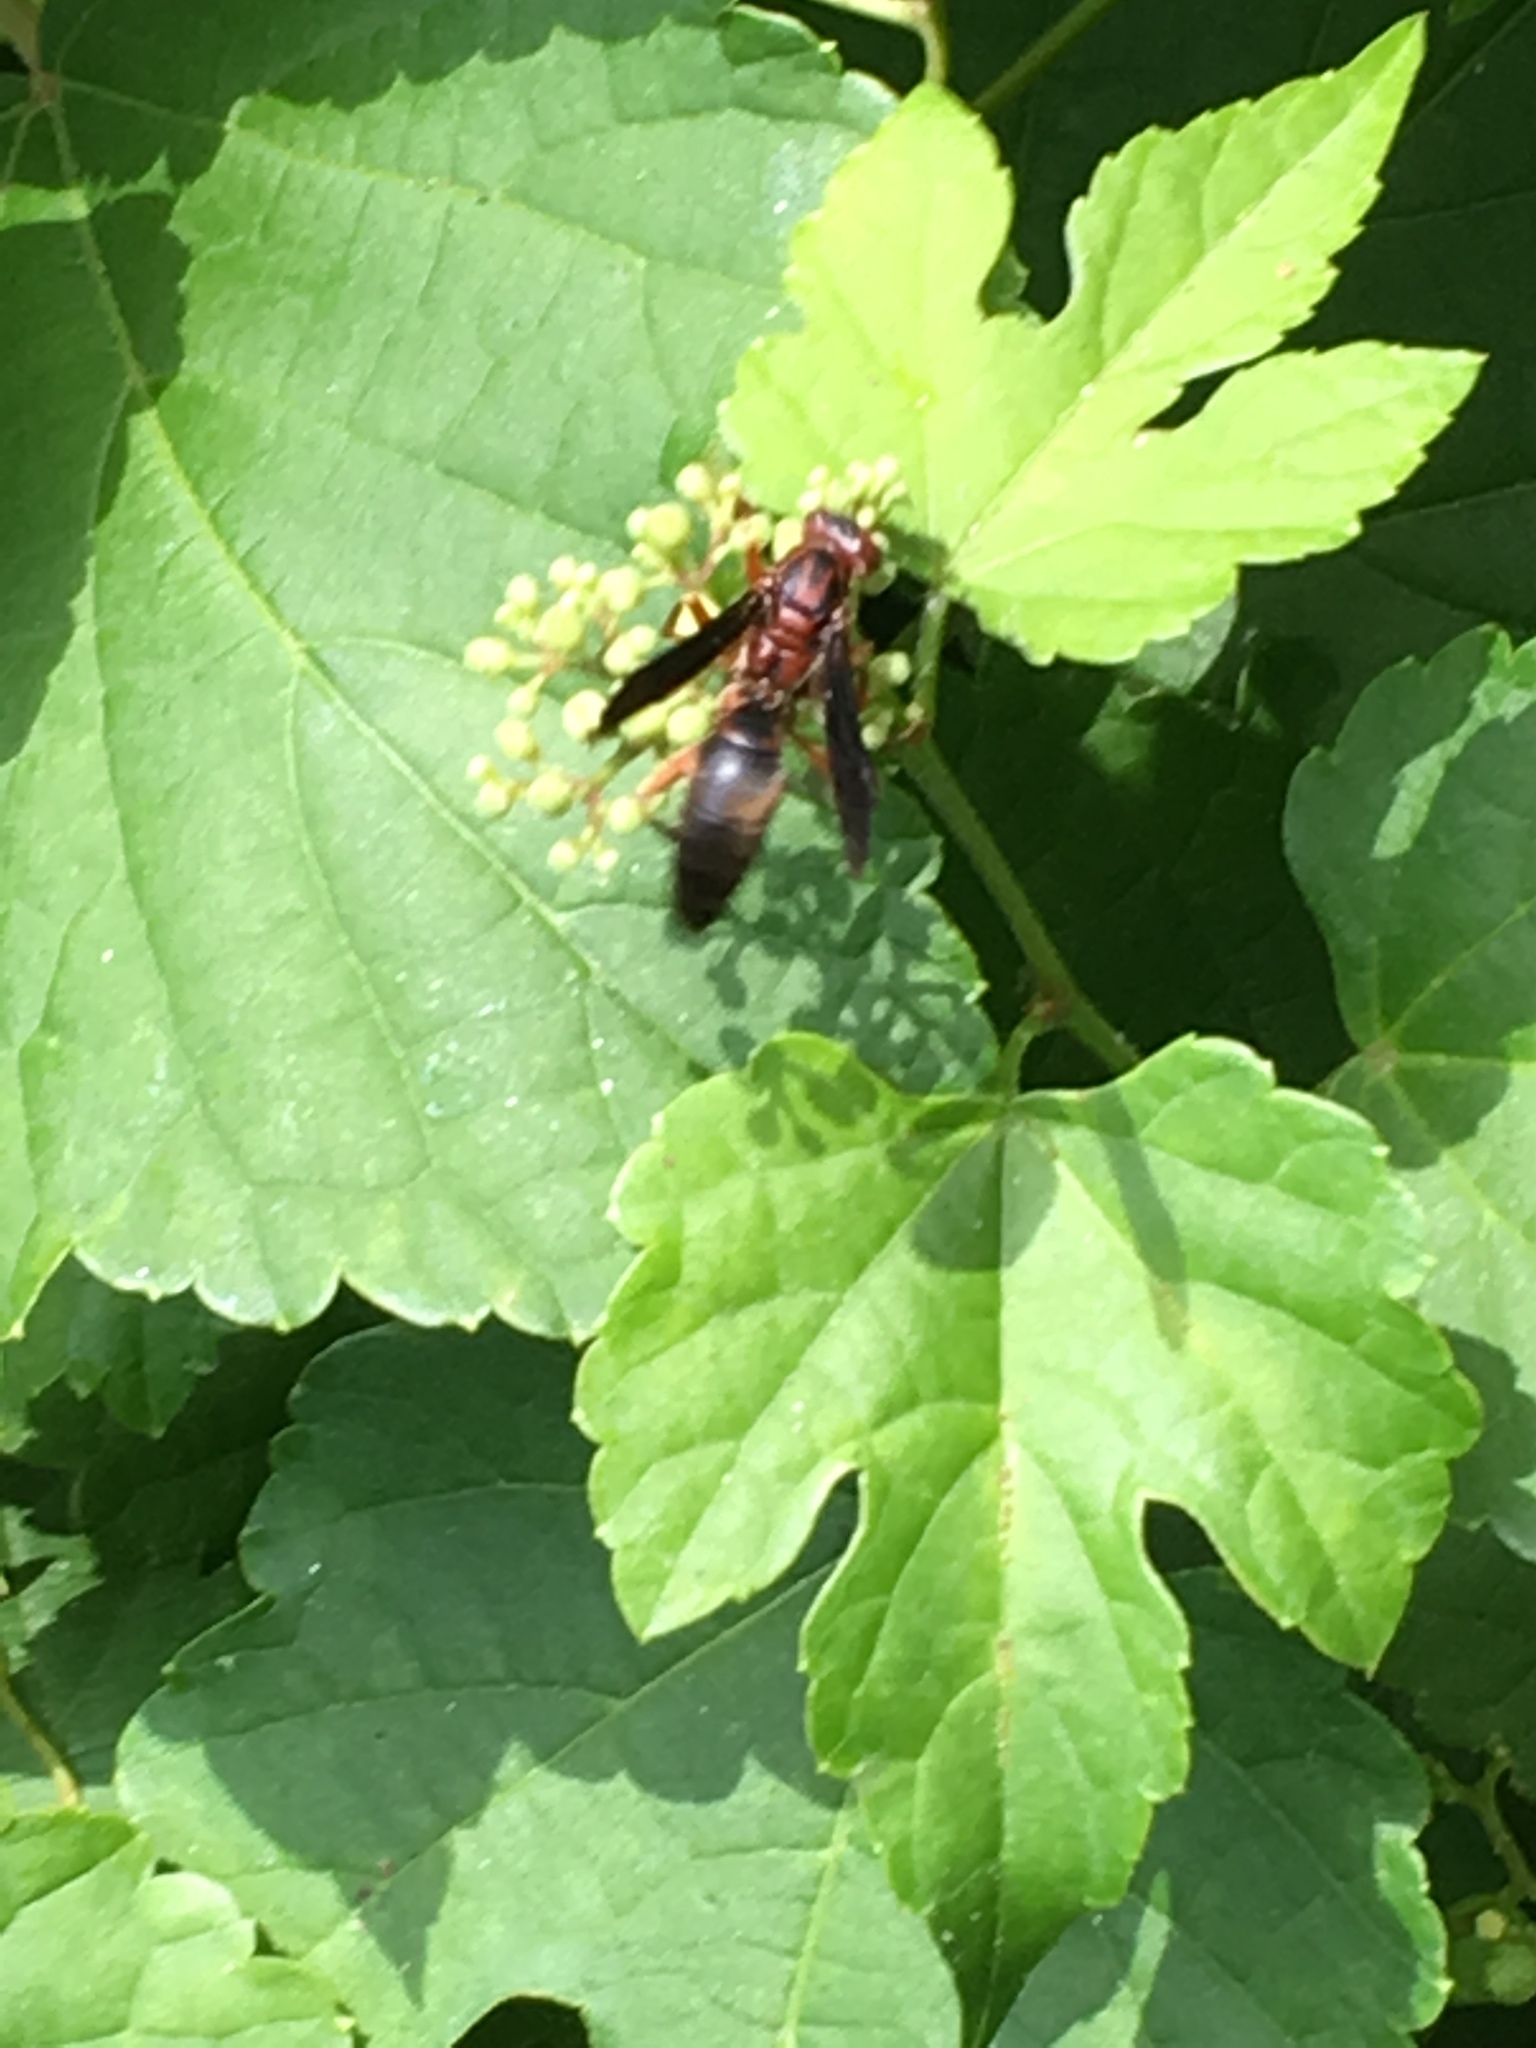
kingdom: Animalia
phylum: Arthropoda
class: Insecta
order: Hymenoptera
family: Eumenidae
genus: Polistes
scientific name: Polistes metricus
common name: Metric paper wasp
